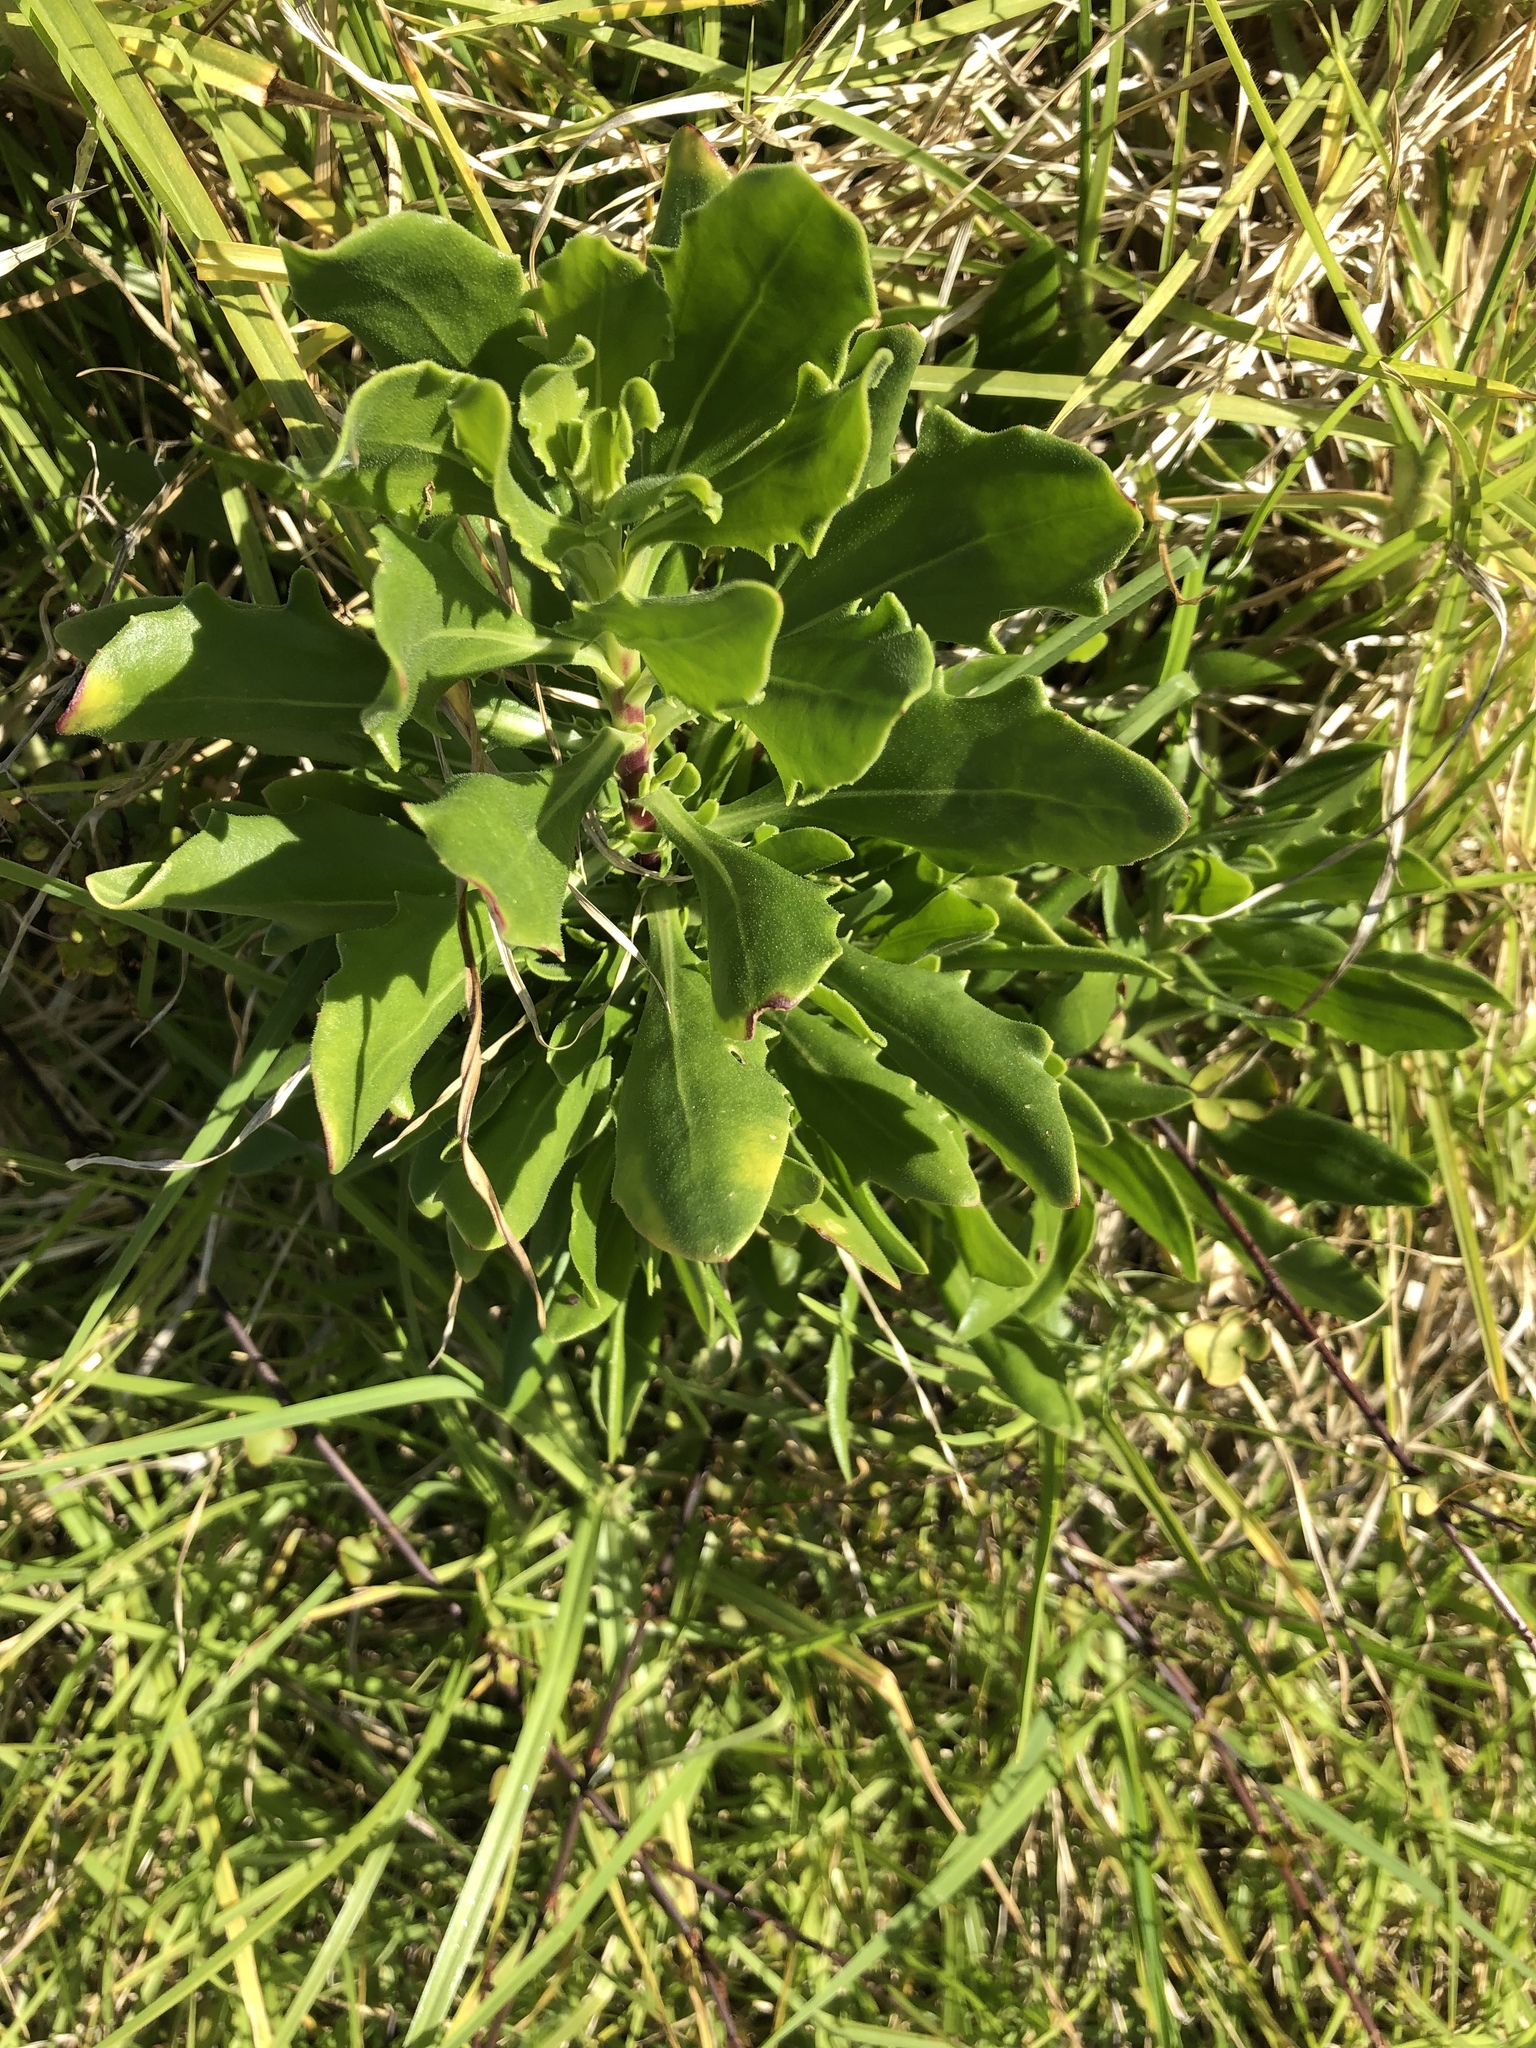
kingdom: Plantae
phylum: Tracheophyta
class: Magnoliopsida
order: Asterales
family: Asteraceae
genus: Osteospermum
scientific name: Osteospermum moniliferum
